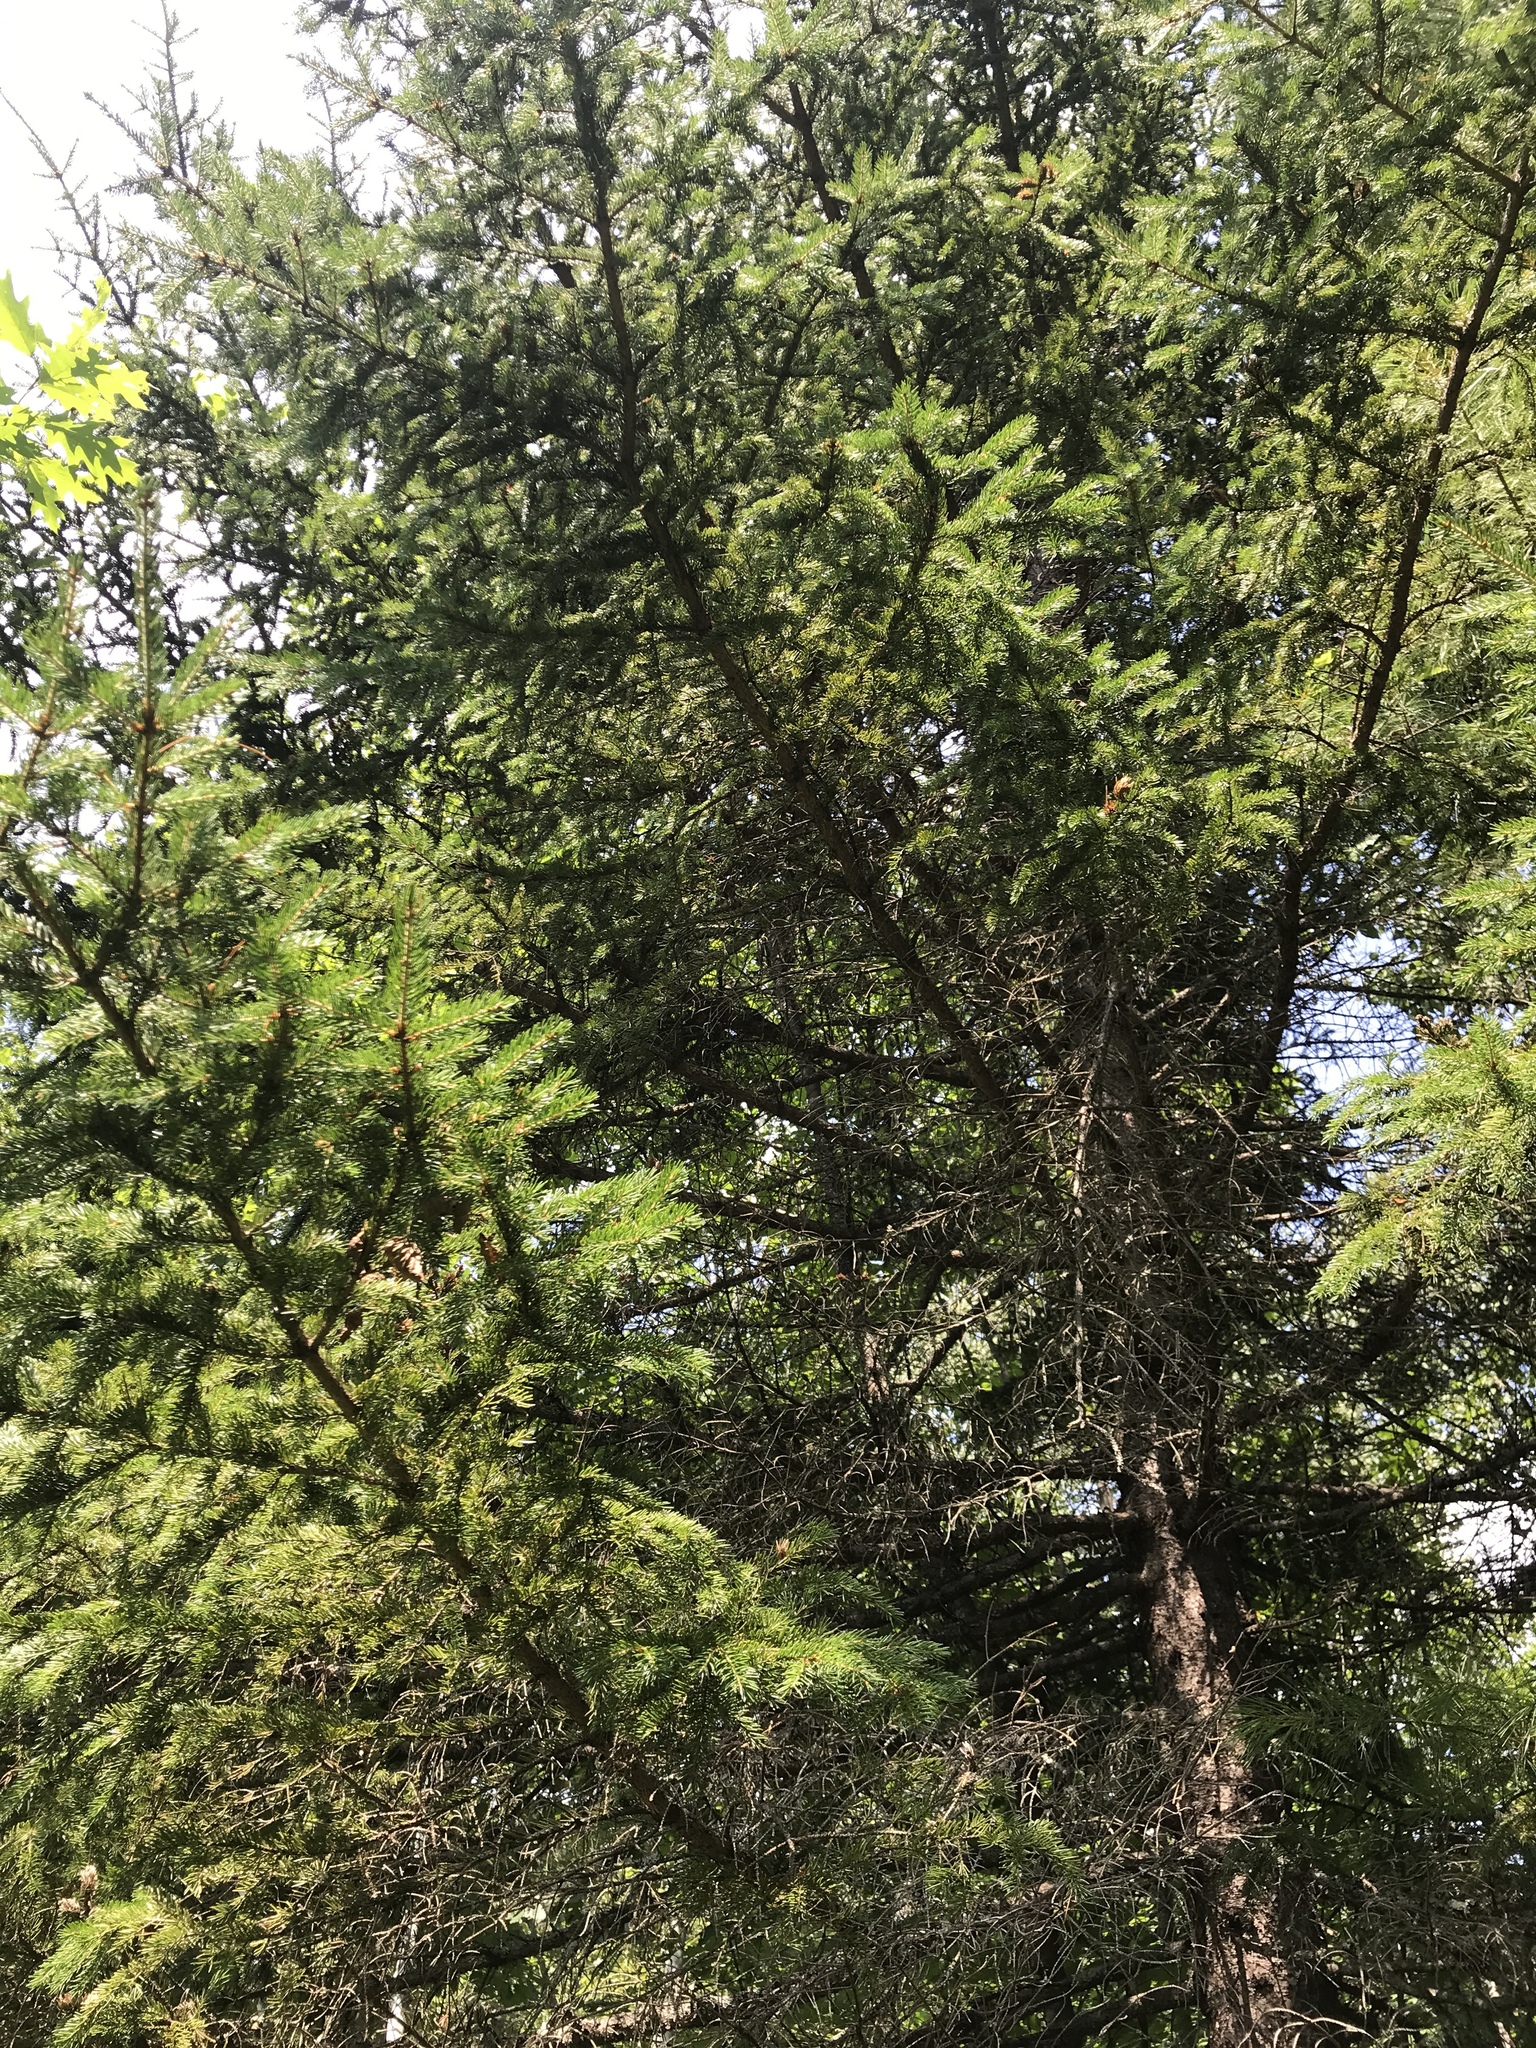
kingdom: Plantae
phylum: Tracheophyta
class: Pinopsida
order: Pinales
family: Pinaceae
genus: Picea
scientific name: Picea rubens
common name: Red spruce
